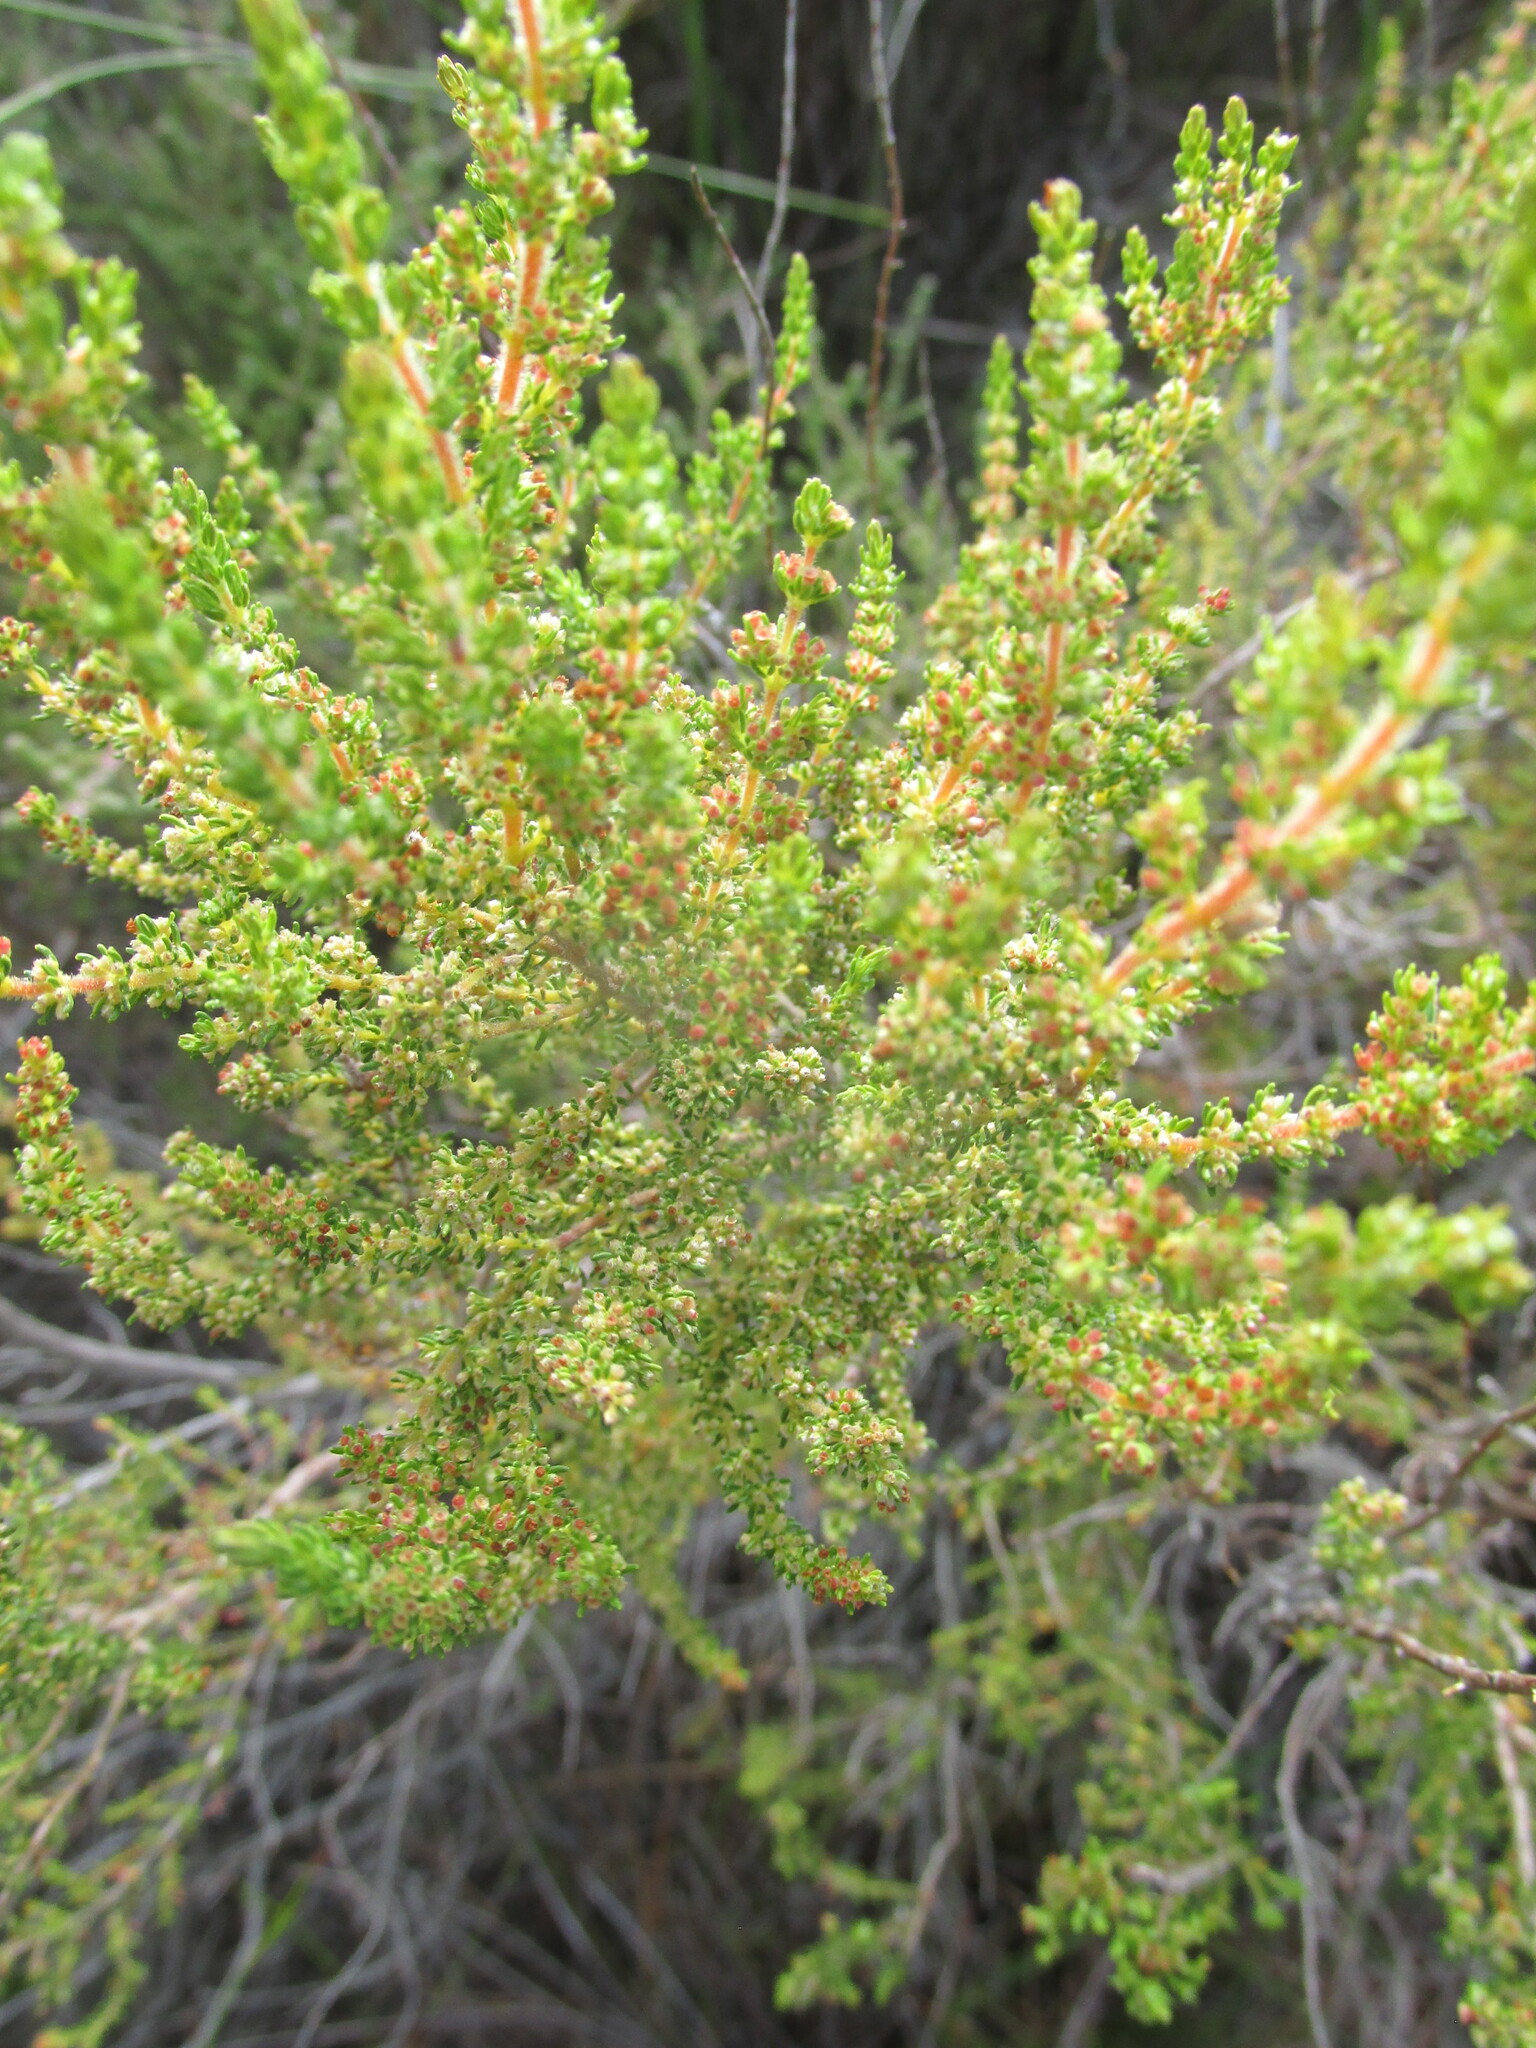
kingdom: Plantae
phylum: Tracheophyta
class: Magnoliopsida
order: Ericales
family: Ericaceae
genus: Erica
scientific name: Erica muscosa
